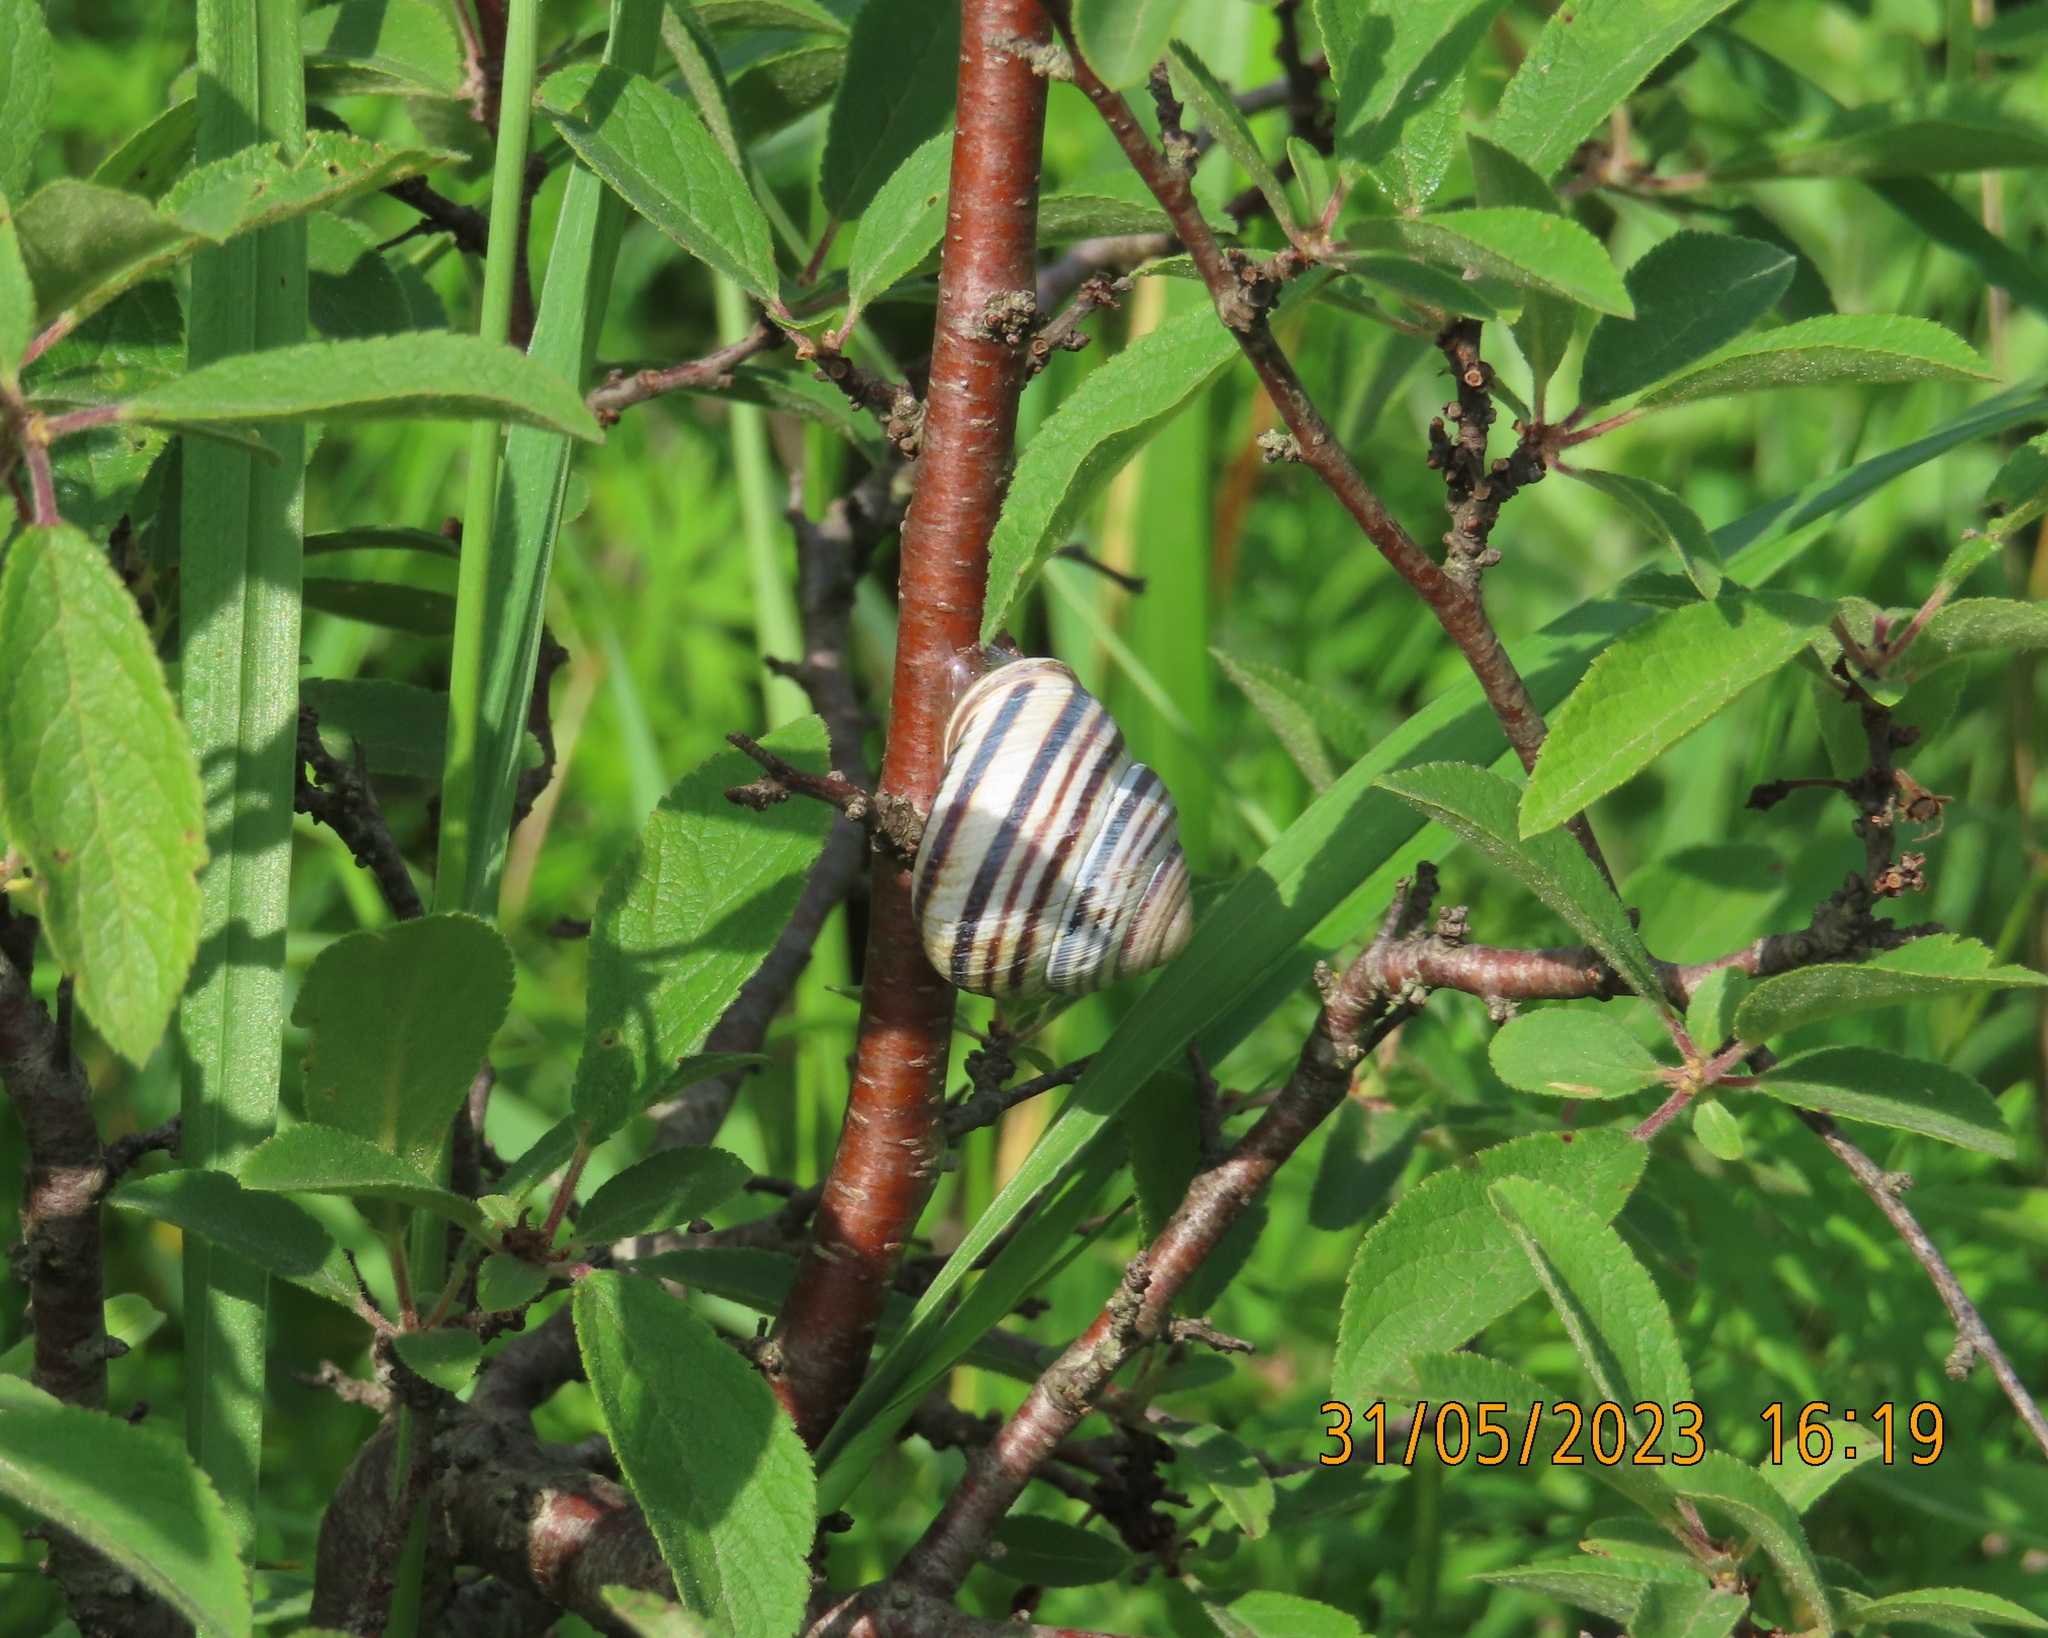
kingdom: Animalia
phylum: Mollusca
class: Gastropoda
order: Stylommatophora
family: Helicidae
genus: Caucasotachea
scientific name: Caucasotachea vindobonensis
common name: European helicid land snail
